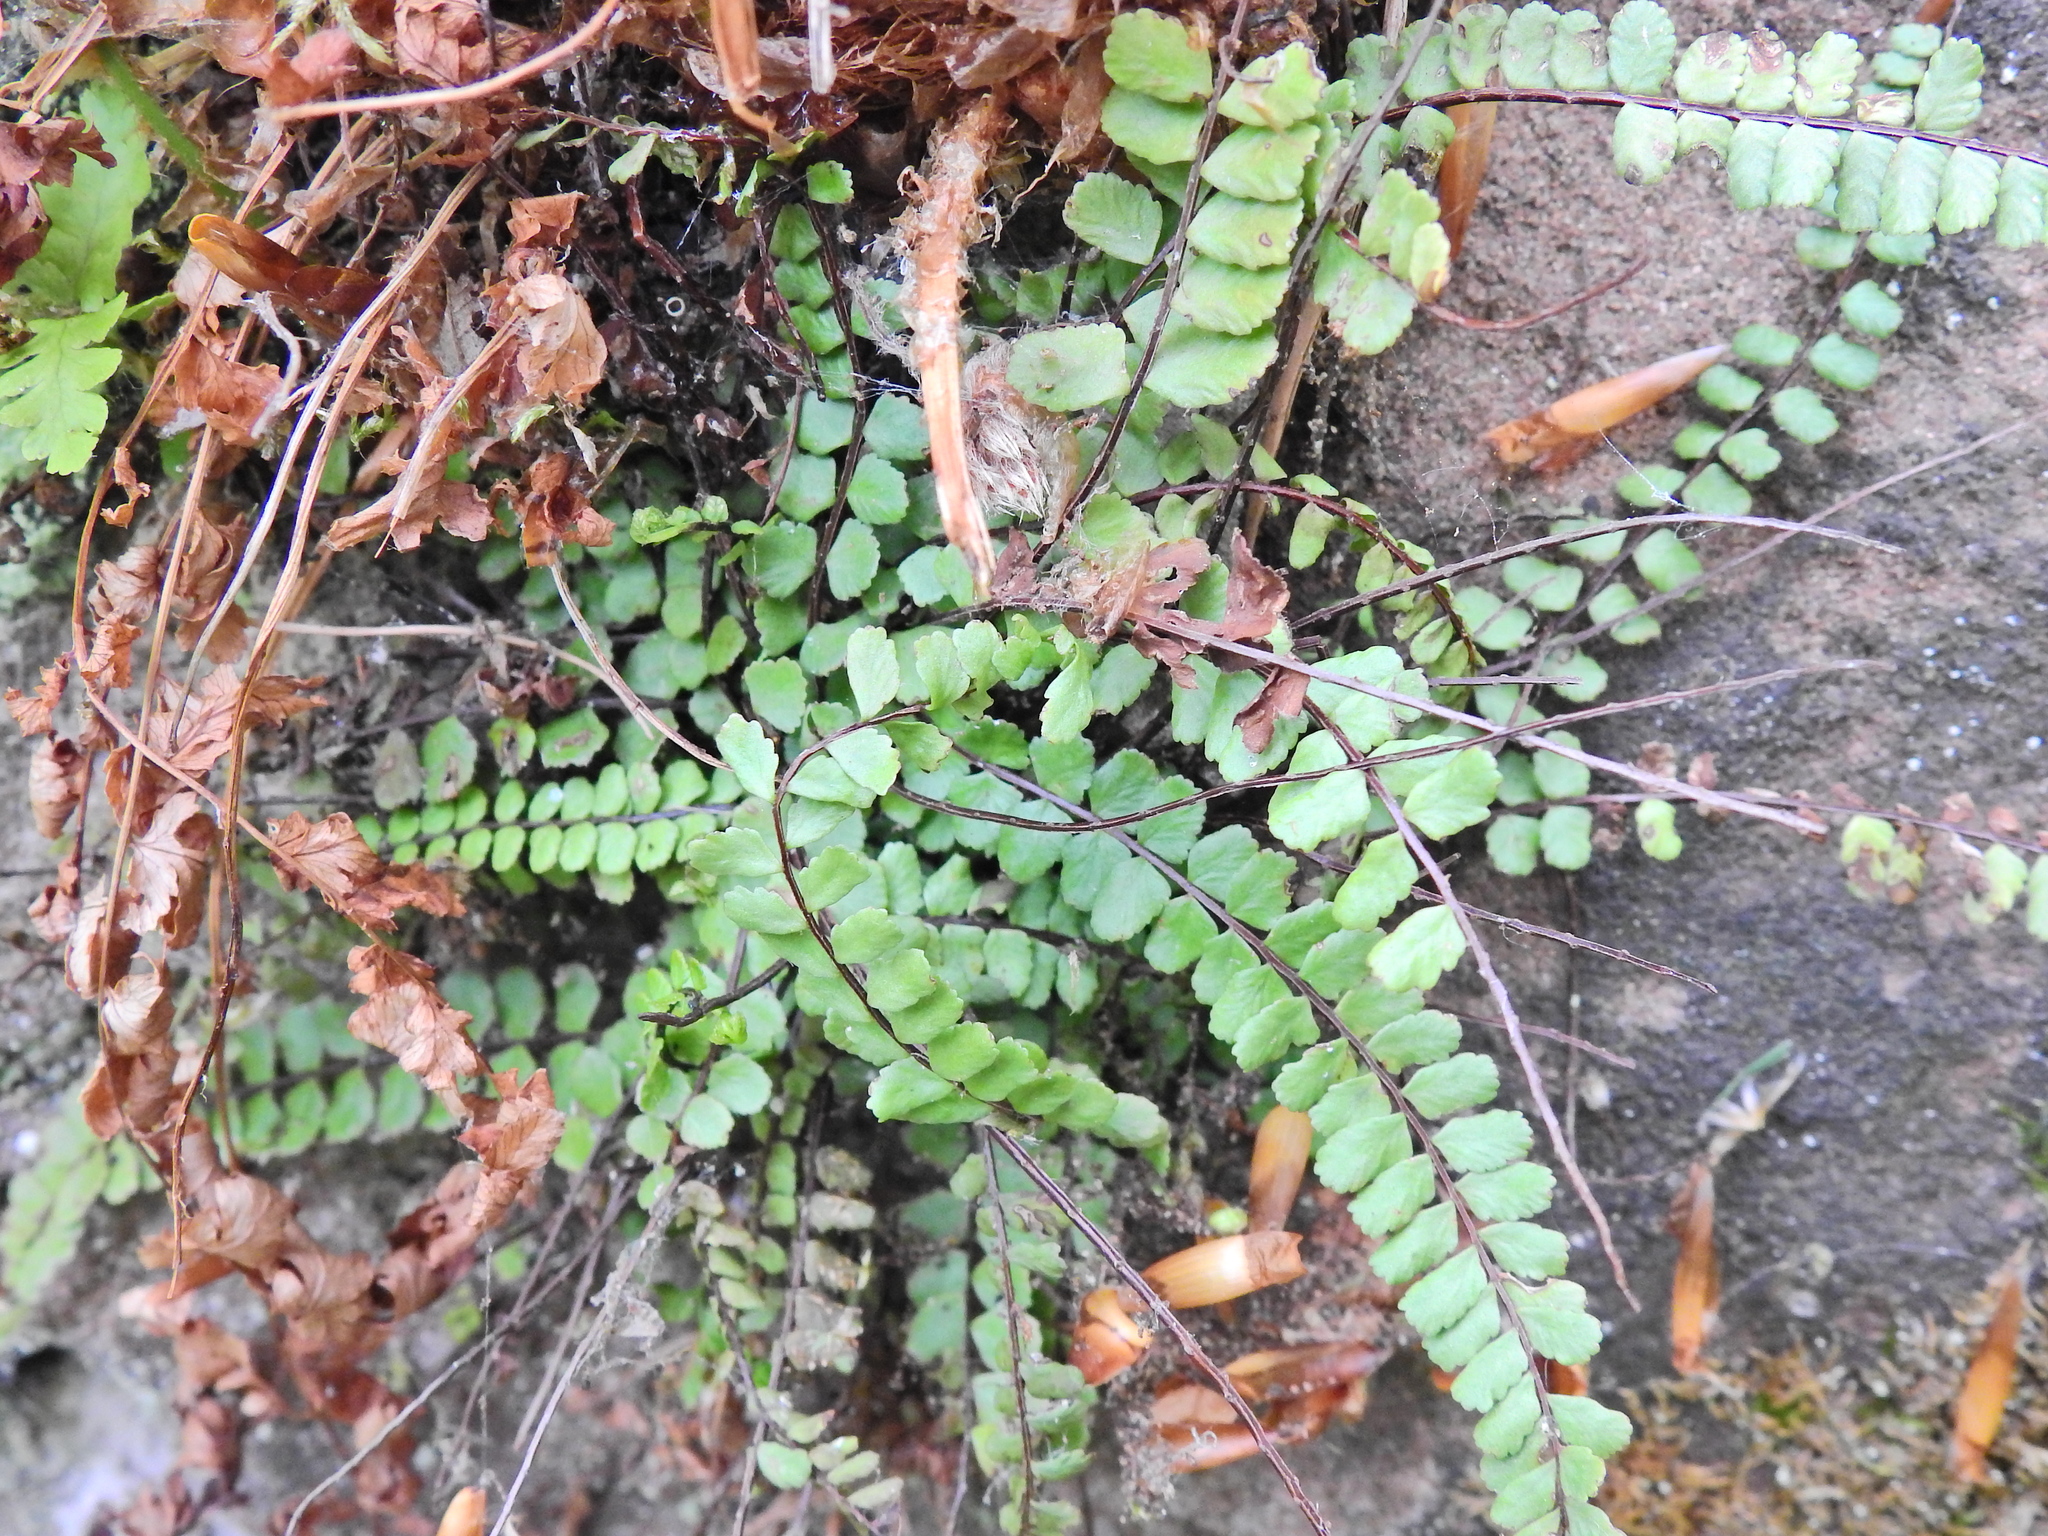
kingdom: Plantae
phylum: Tracheophyta
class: Polypodiopsida
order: Polypodiales
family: Aspleniaceae
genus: Asplenium
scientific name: Asplenium trichomanes
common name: Maidenhair spleenwort
